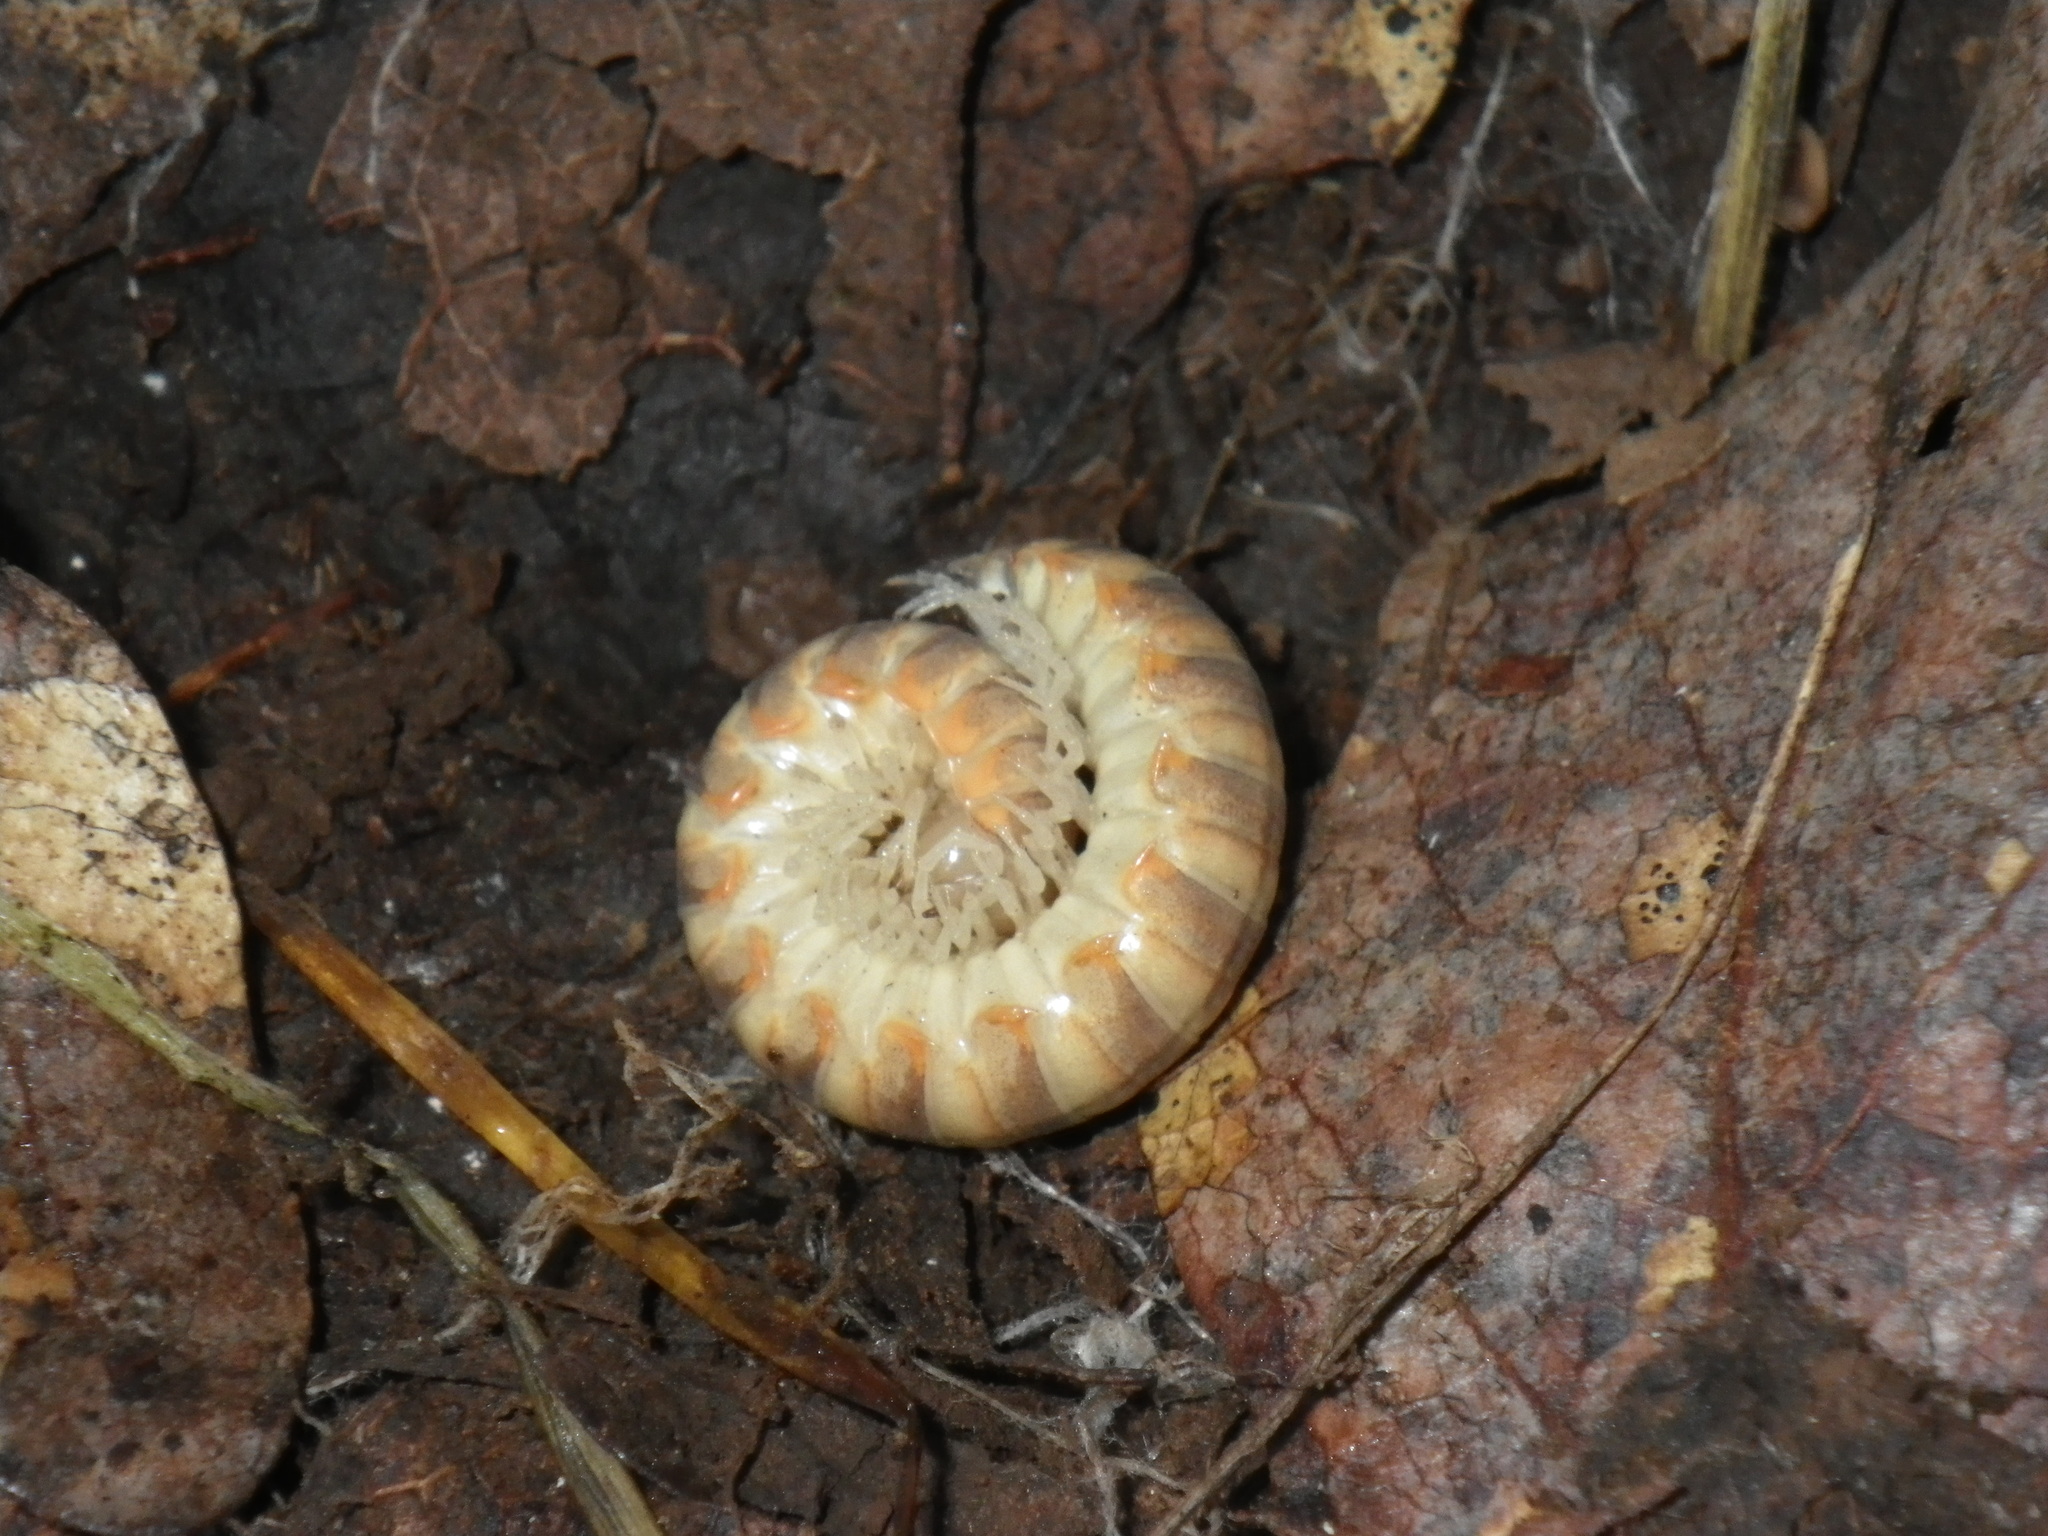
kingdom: Animalia
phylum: Arthropoda
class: Diplopoda
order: Polydesmida
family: Xystodesmidae
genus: Xystocheir
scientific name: Xystocheir dissecta
